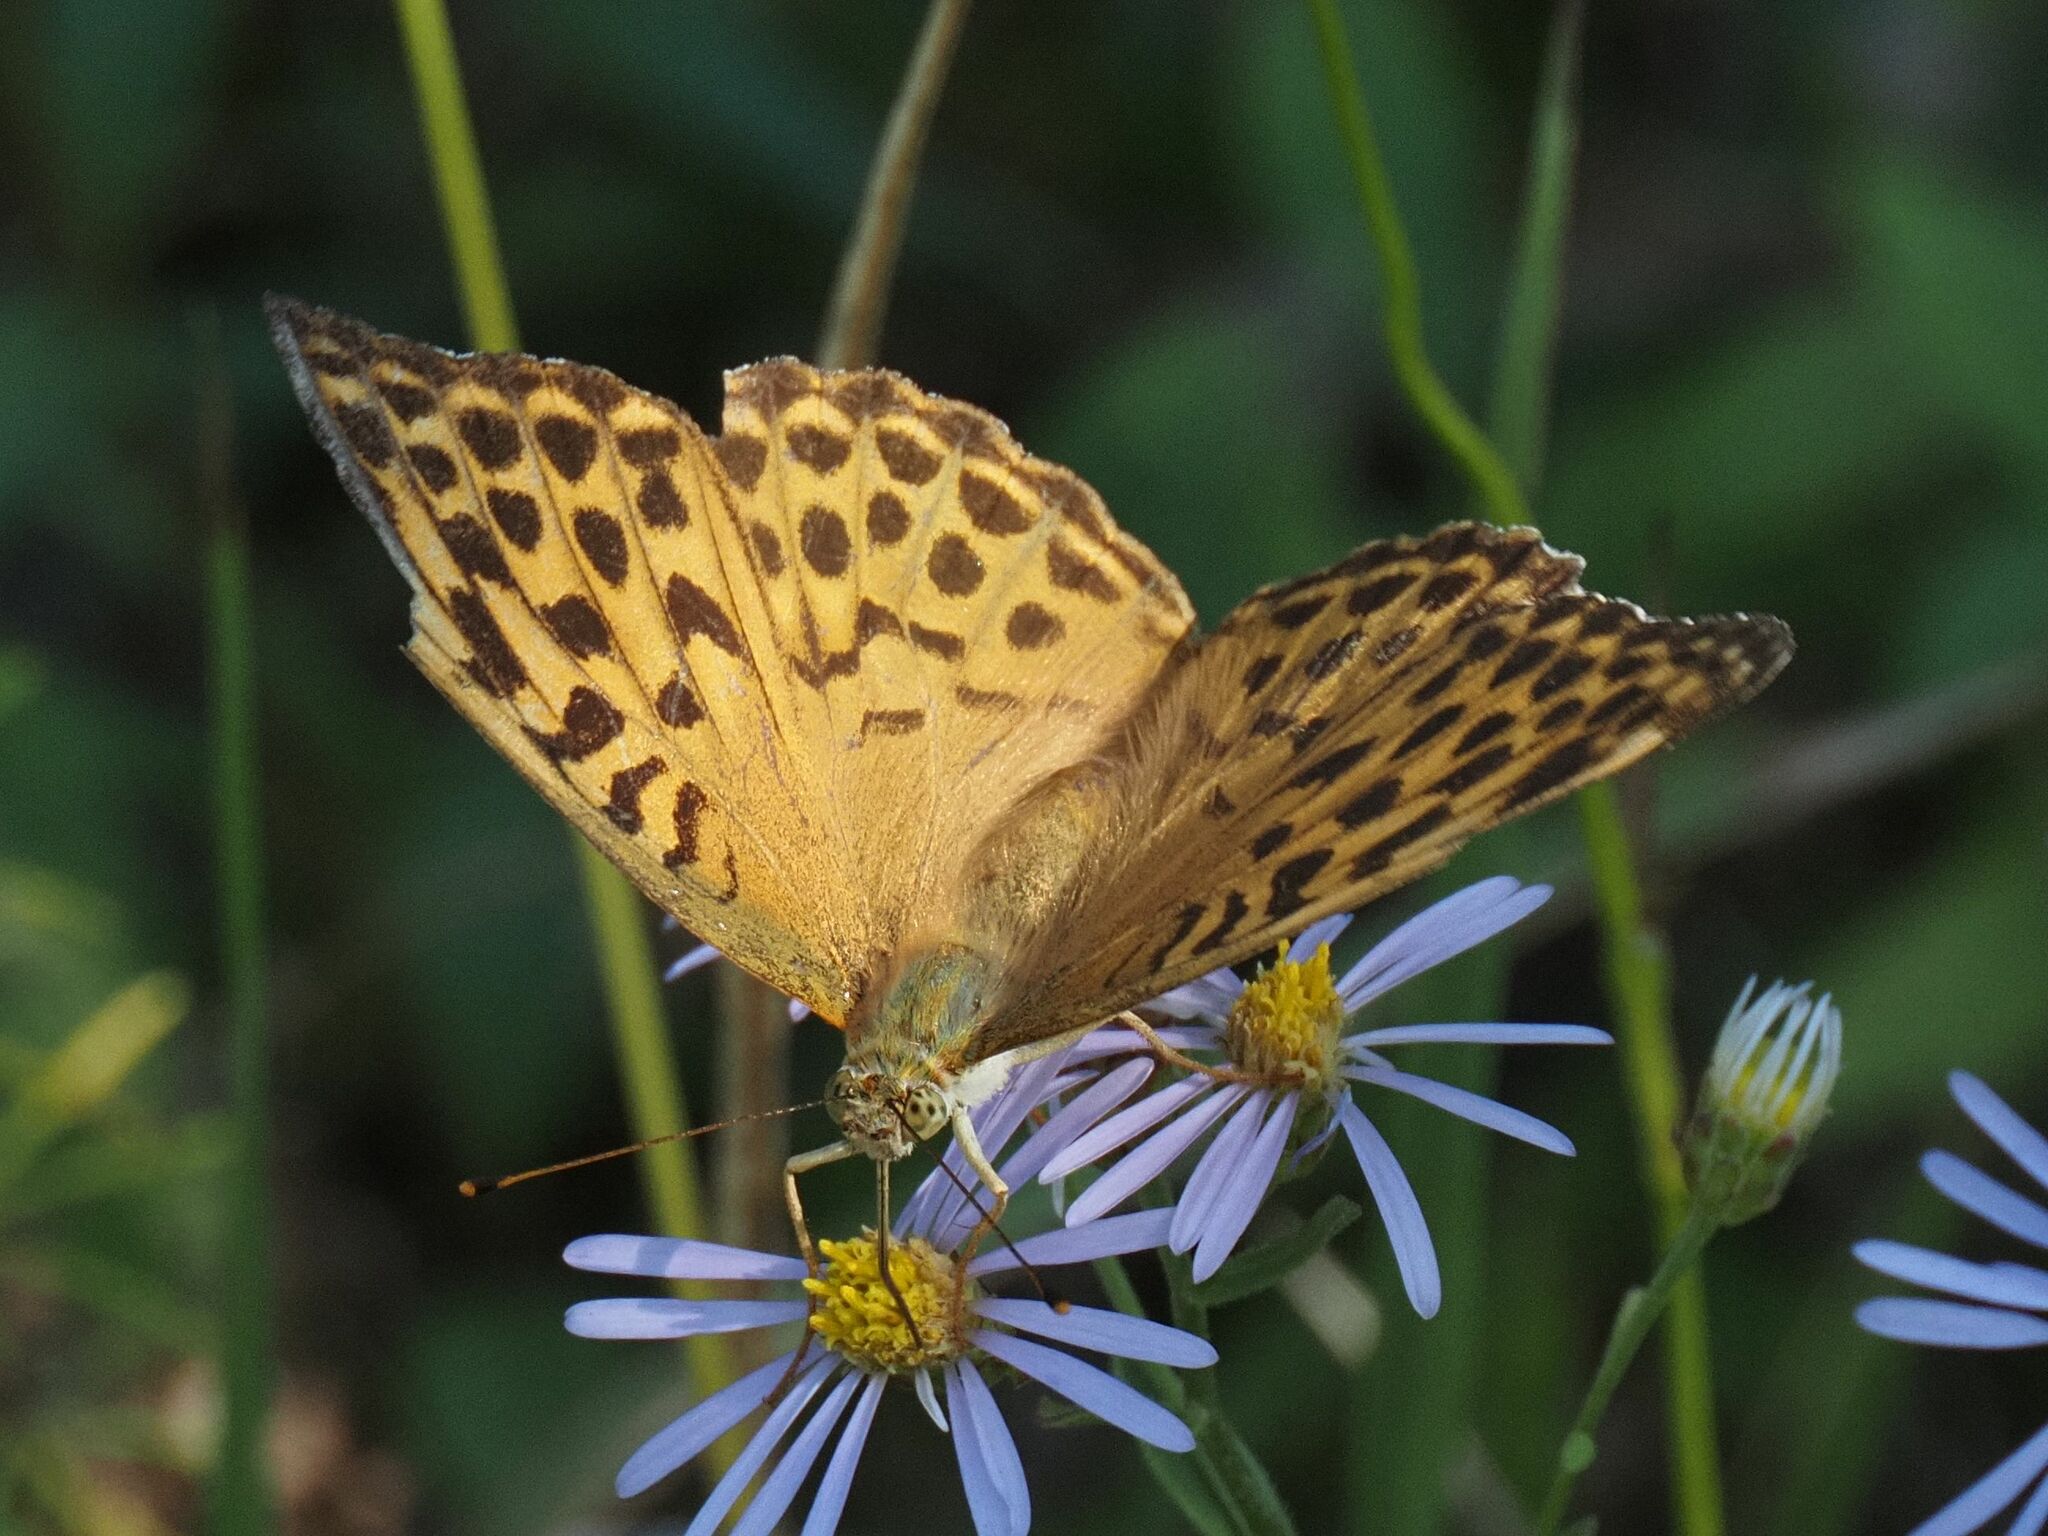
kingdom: Animalia
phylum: Arthropoda
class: Insecta
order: Lepidoptera
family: Nymphalidae
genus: Argynnis
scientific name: Argynnis paphia
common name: Silver-washed fritillary
